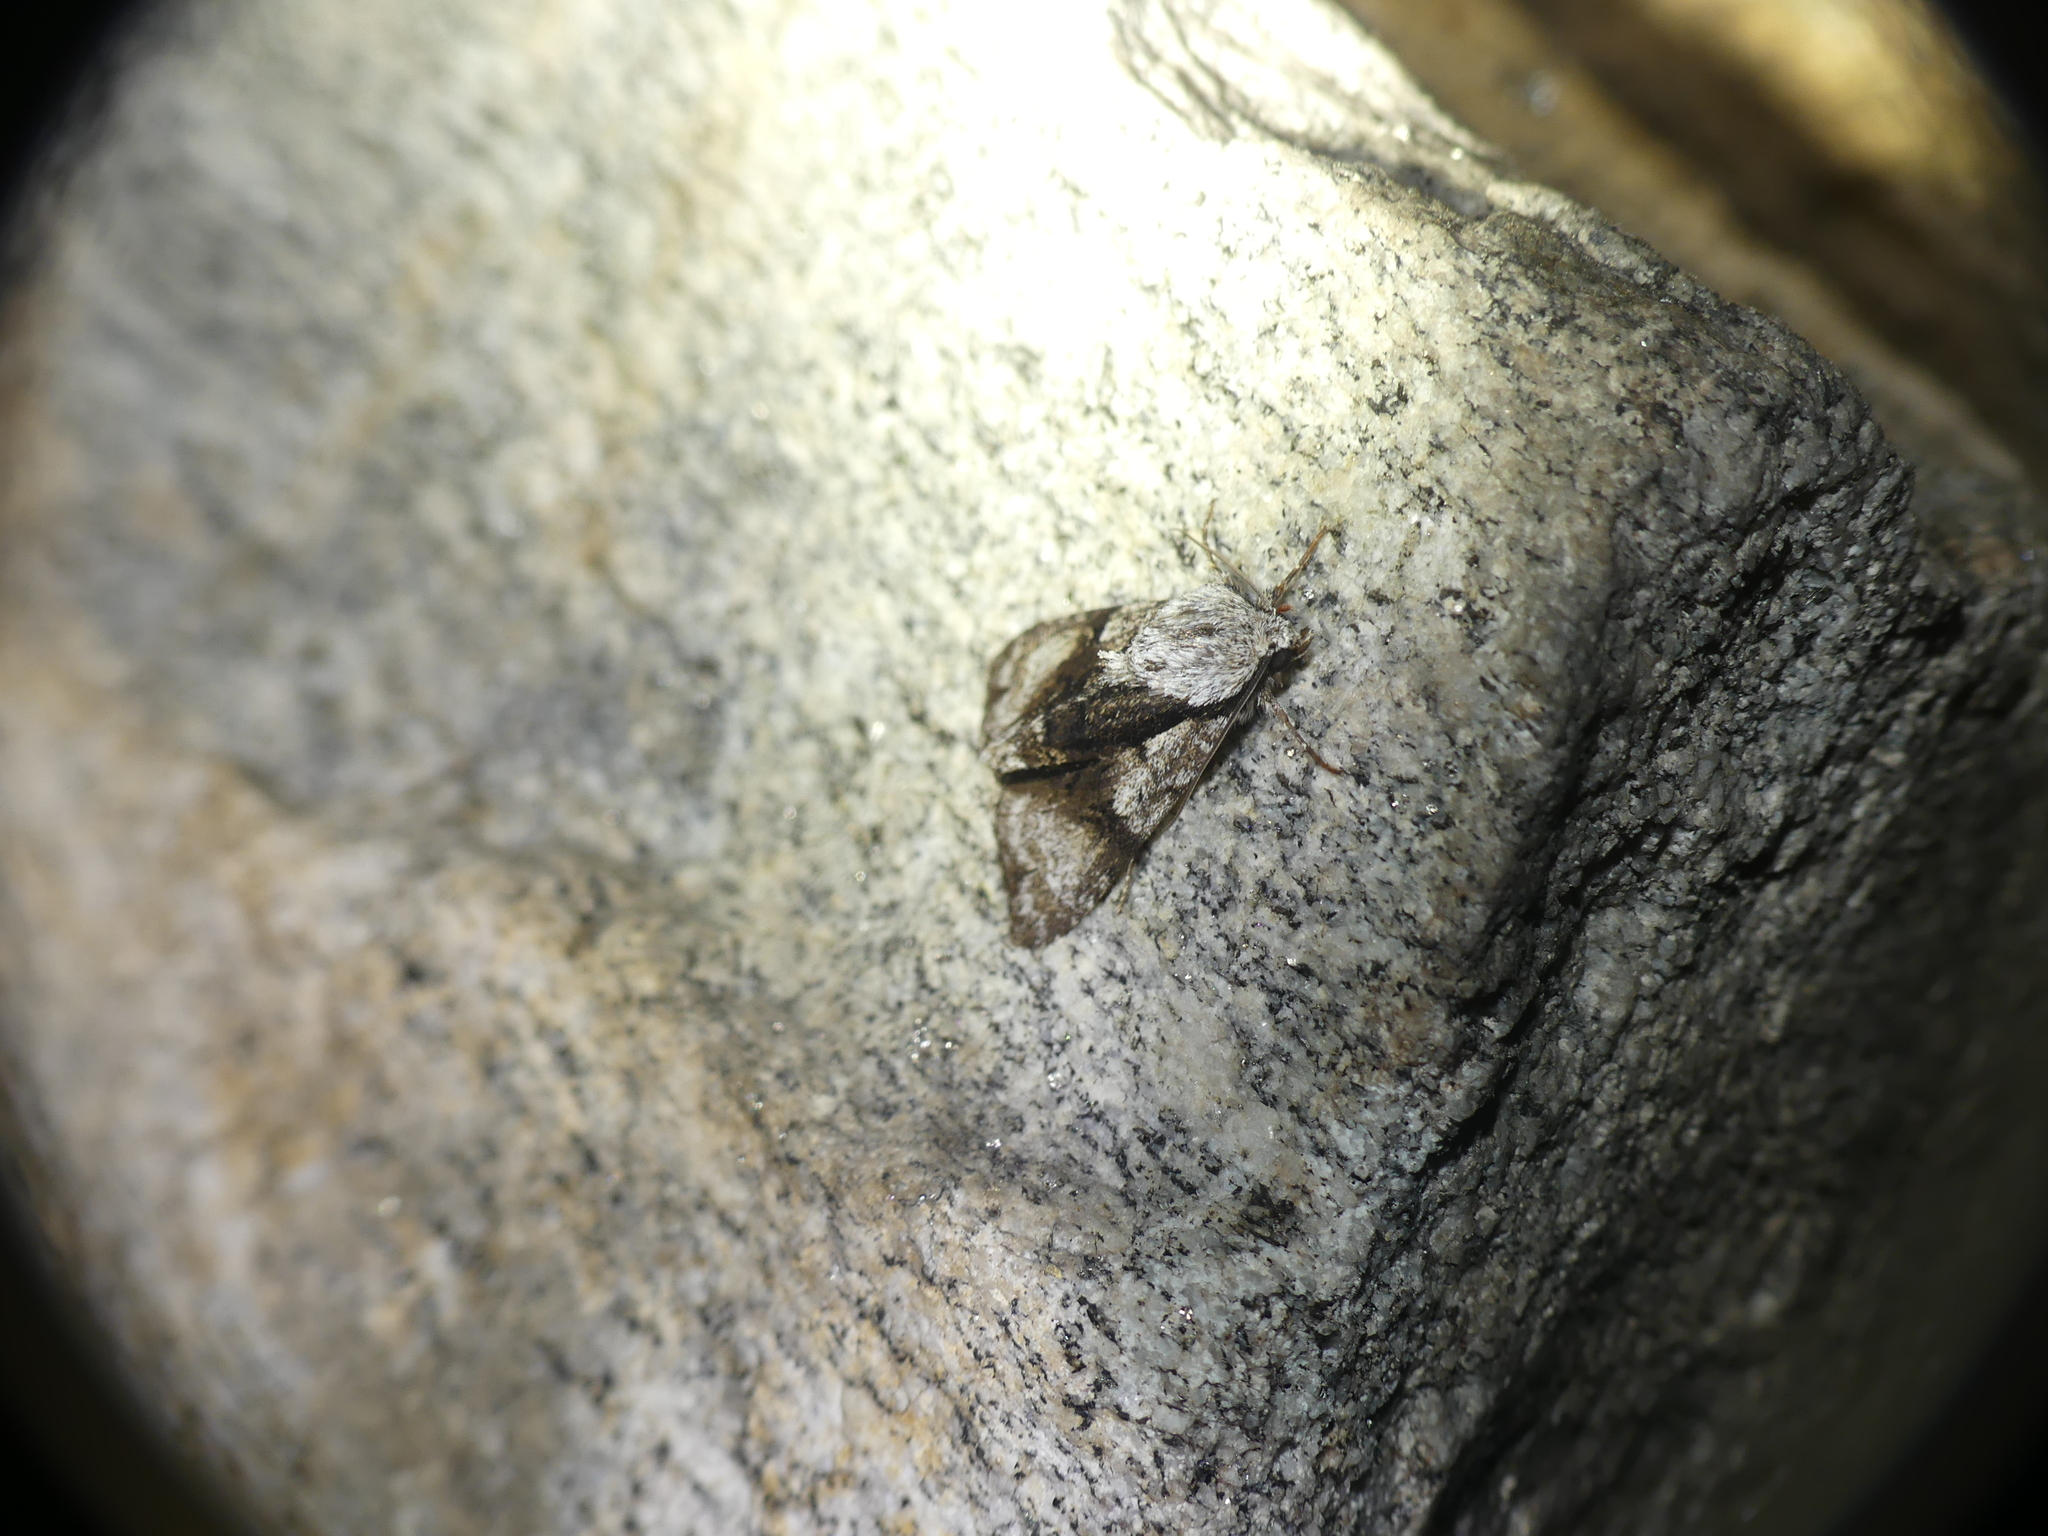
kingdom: Animalia
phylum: Arthropoda
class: Insecta
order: Lepidoptera
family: Noctuidae
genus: Acronicta
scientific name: Acronicta alni
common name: Alder moth
